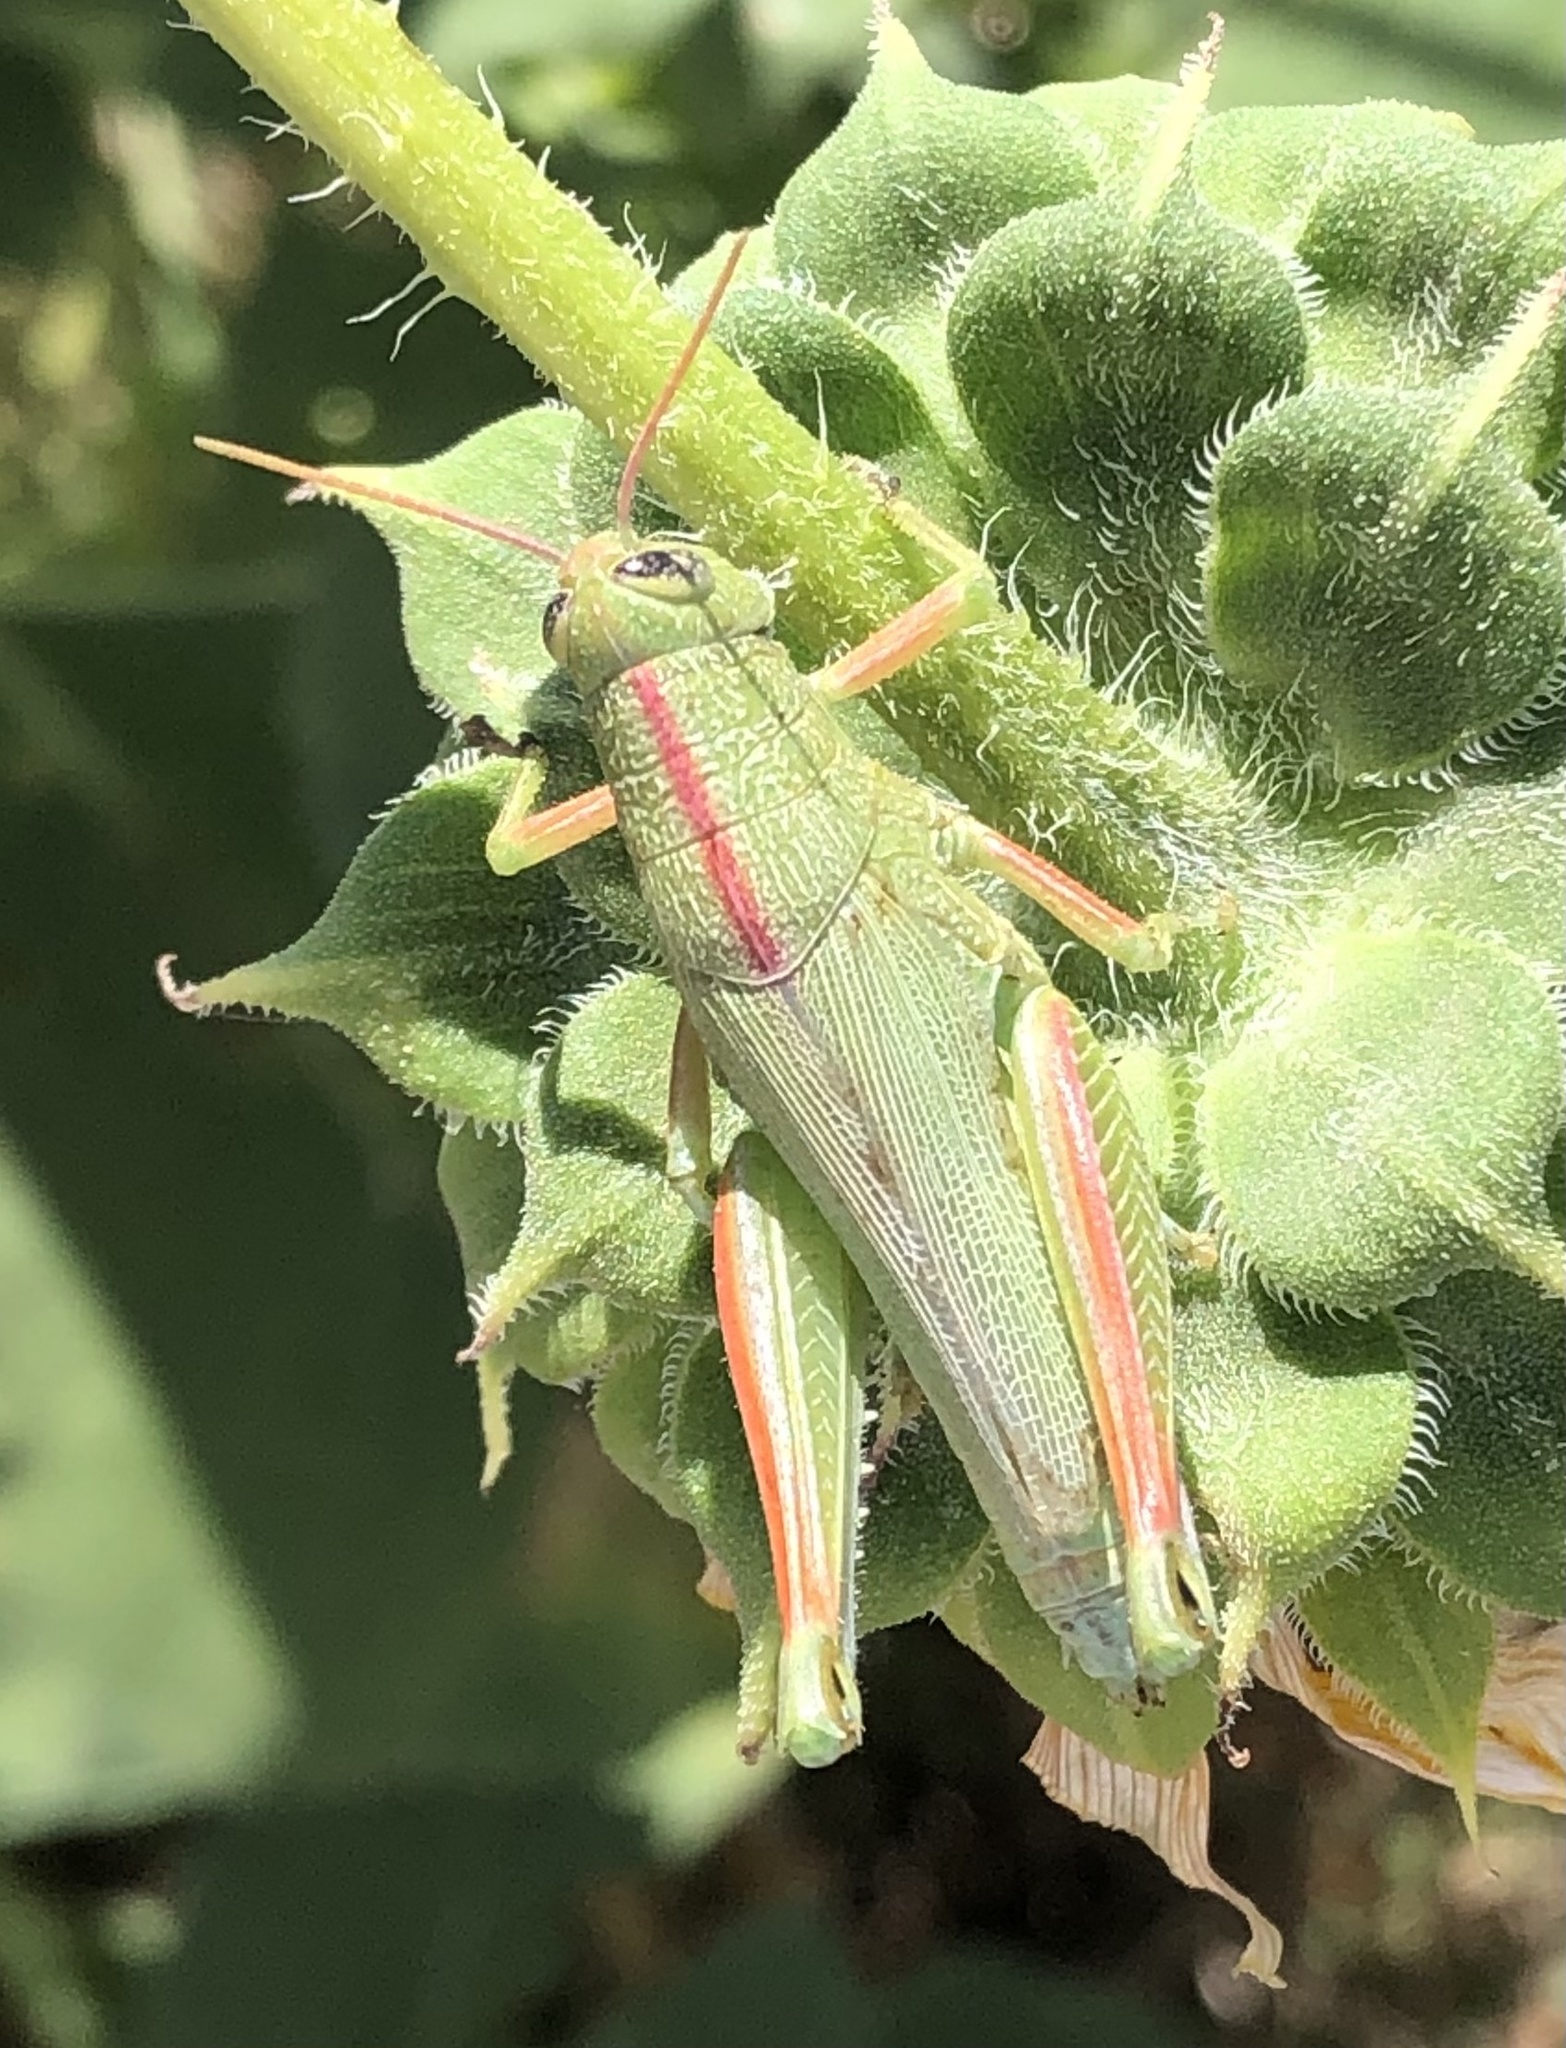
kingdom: Animalia
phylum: Arthropoda
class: Insecta
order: Orthoptera
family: Acrididae
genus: Hesperotettix
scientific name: Hesperotettix speciosus
